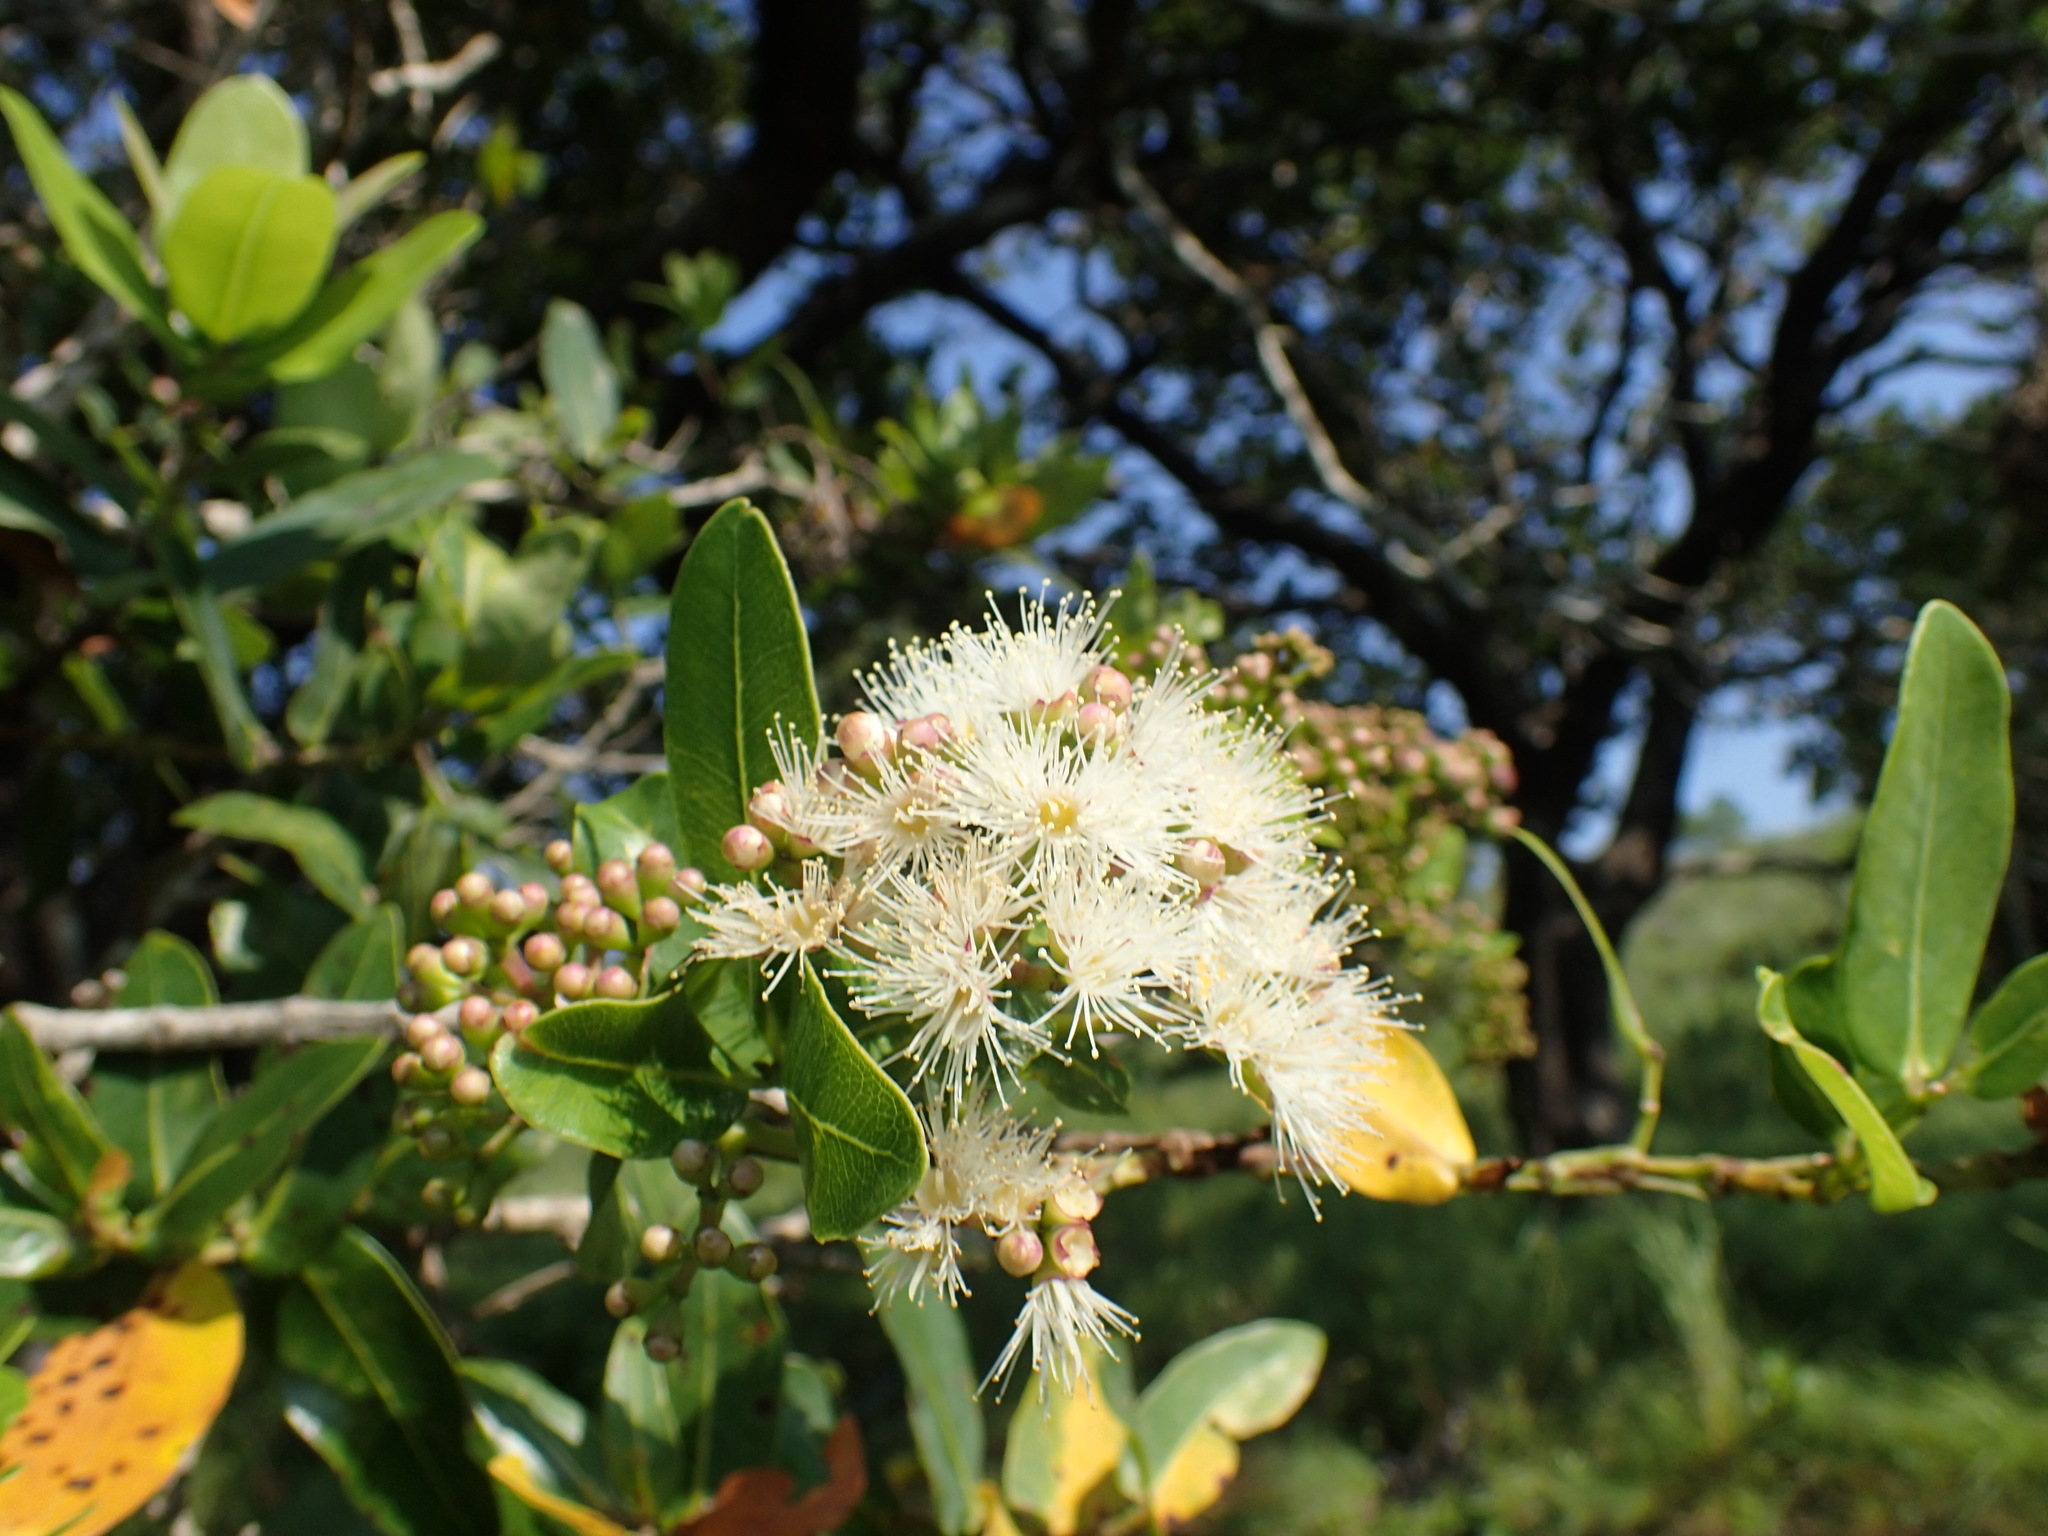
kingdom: Plantae
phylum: Tracheophyta
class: Magnoliopsida
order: Myrtales
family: Myrtaceae
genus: Syzygium
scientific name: Syzygium cordatum
